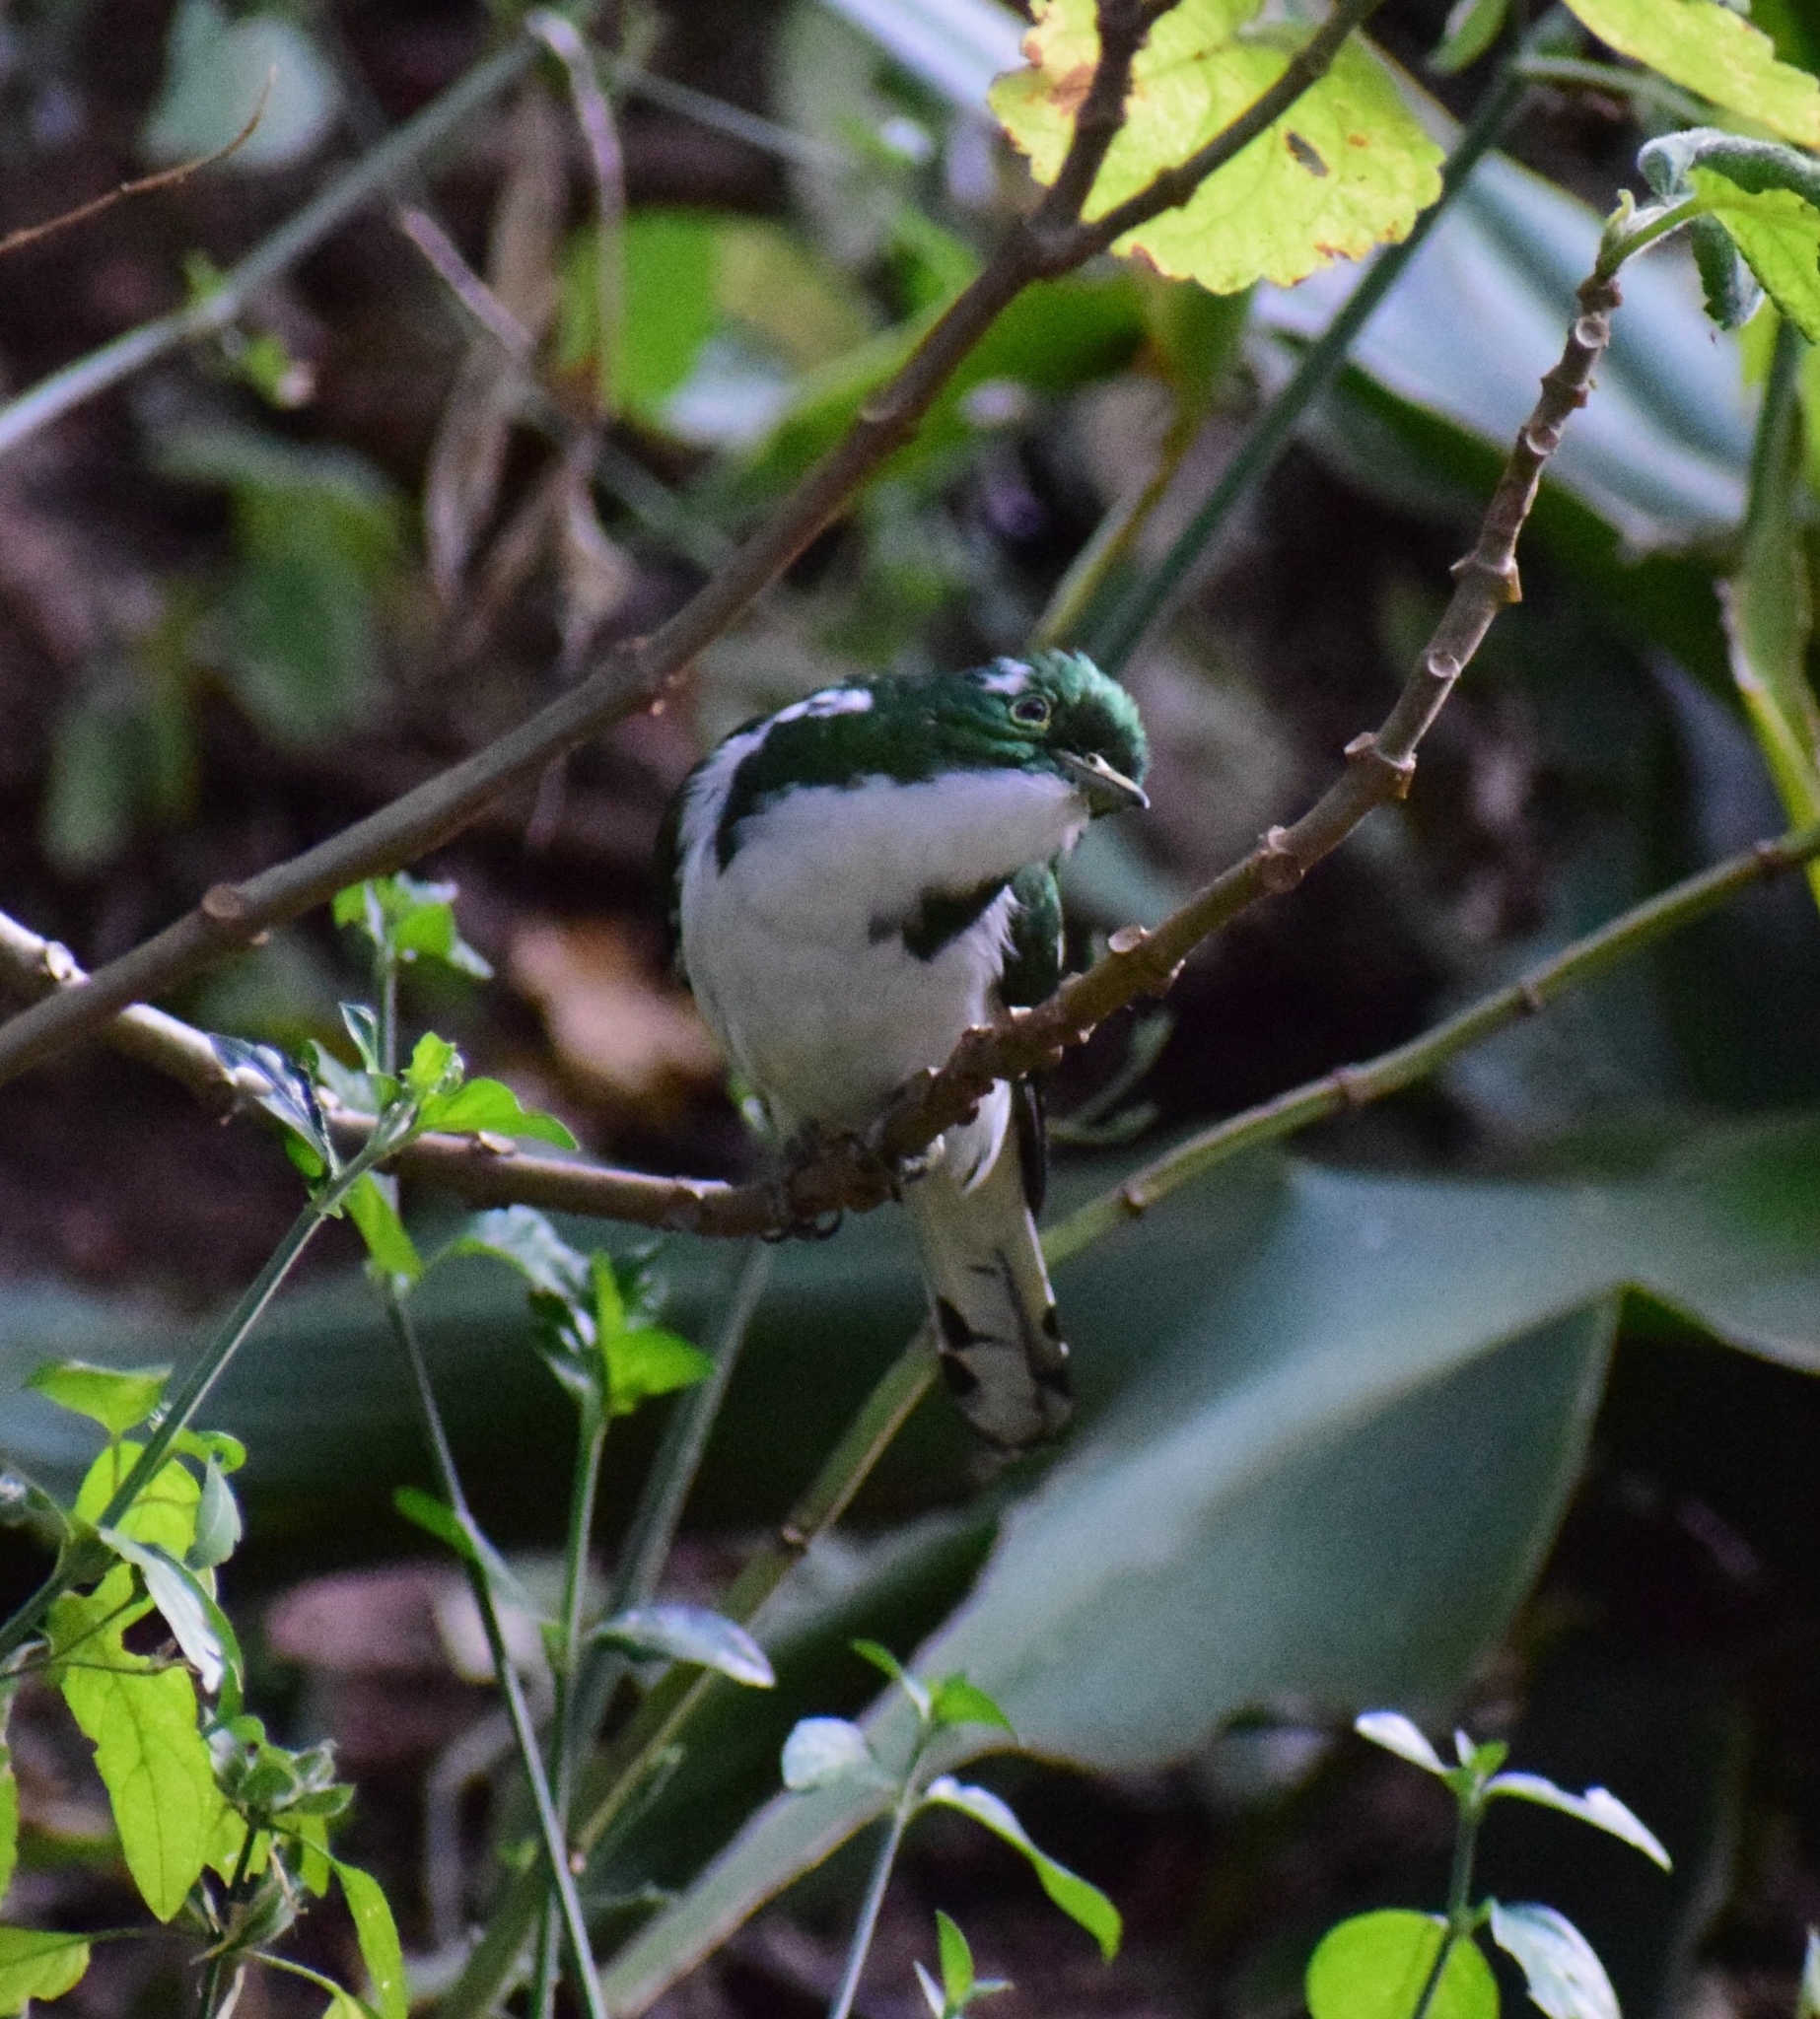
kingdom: Animalia
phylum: Chordata
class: Aves
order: Cuculiformes
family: Cuculidae
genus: Chrysococcyx
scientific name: Chrysococcyx klaas
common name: Klaas's cuckoo
